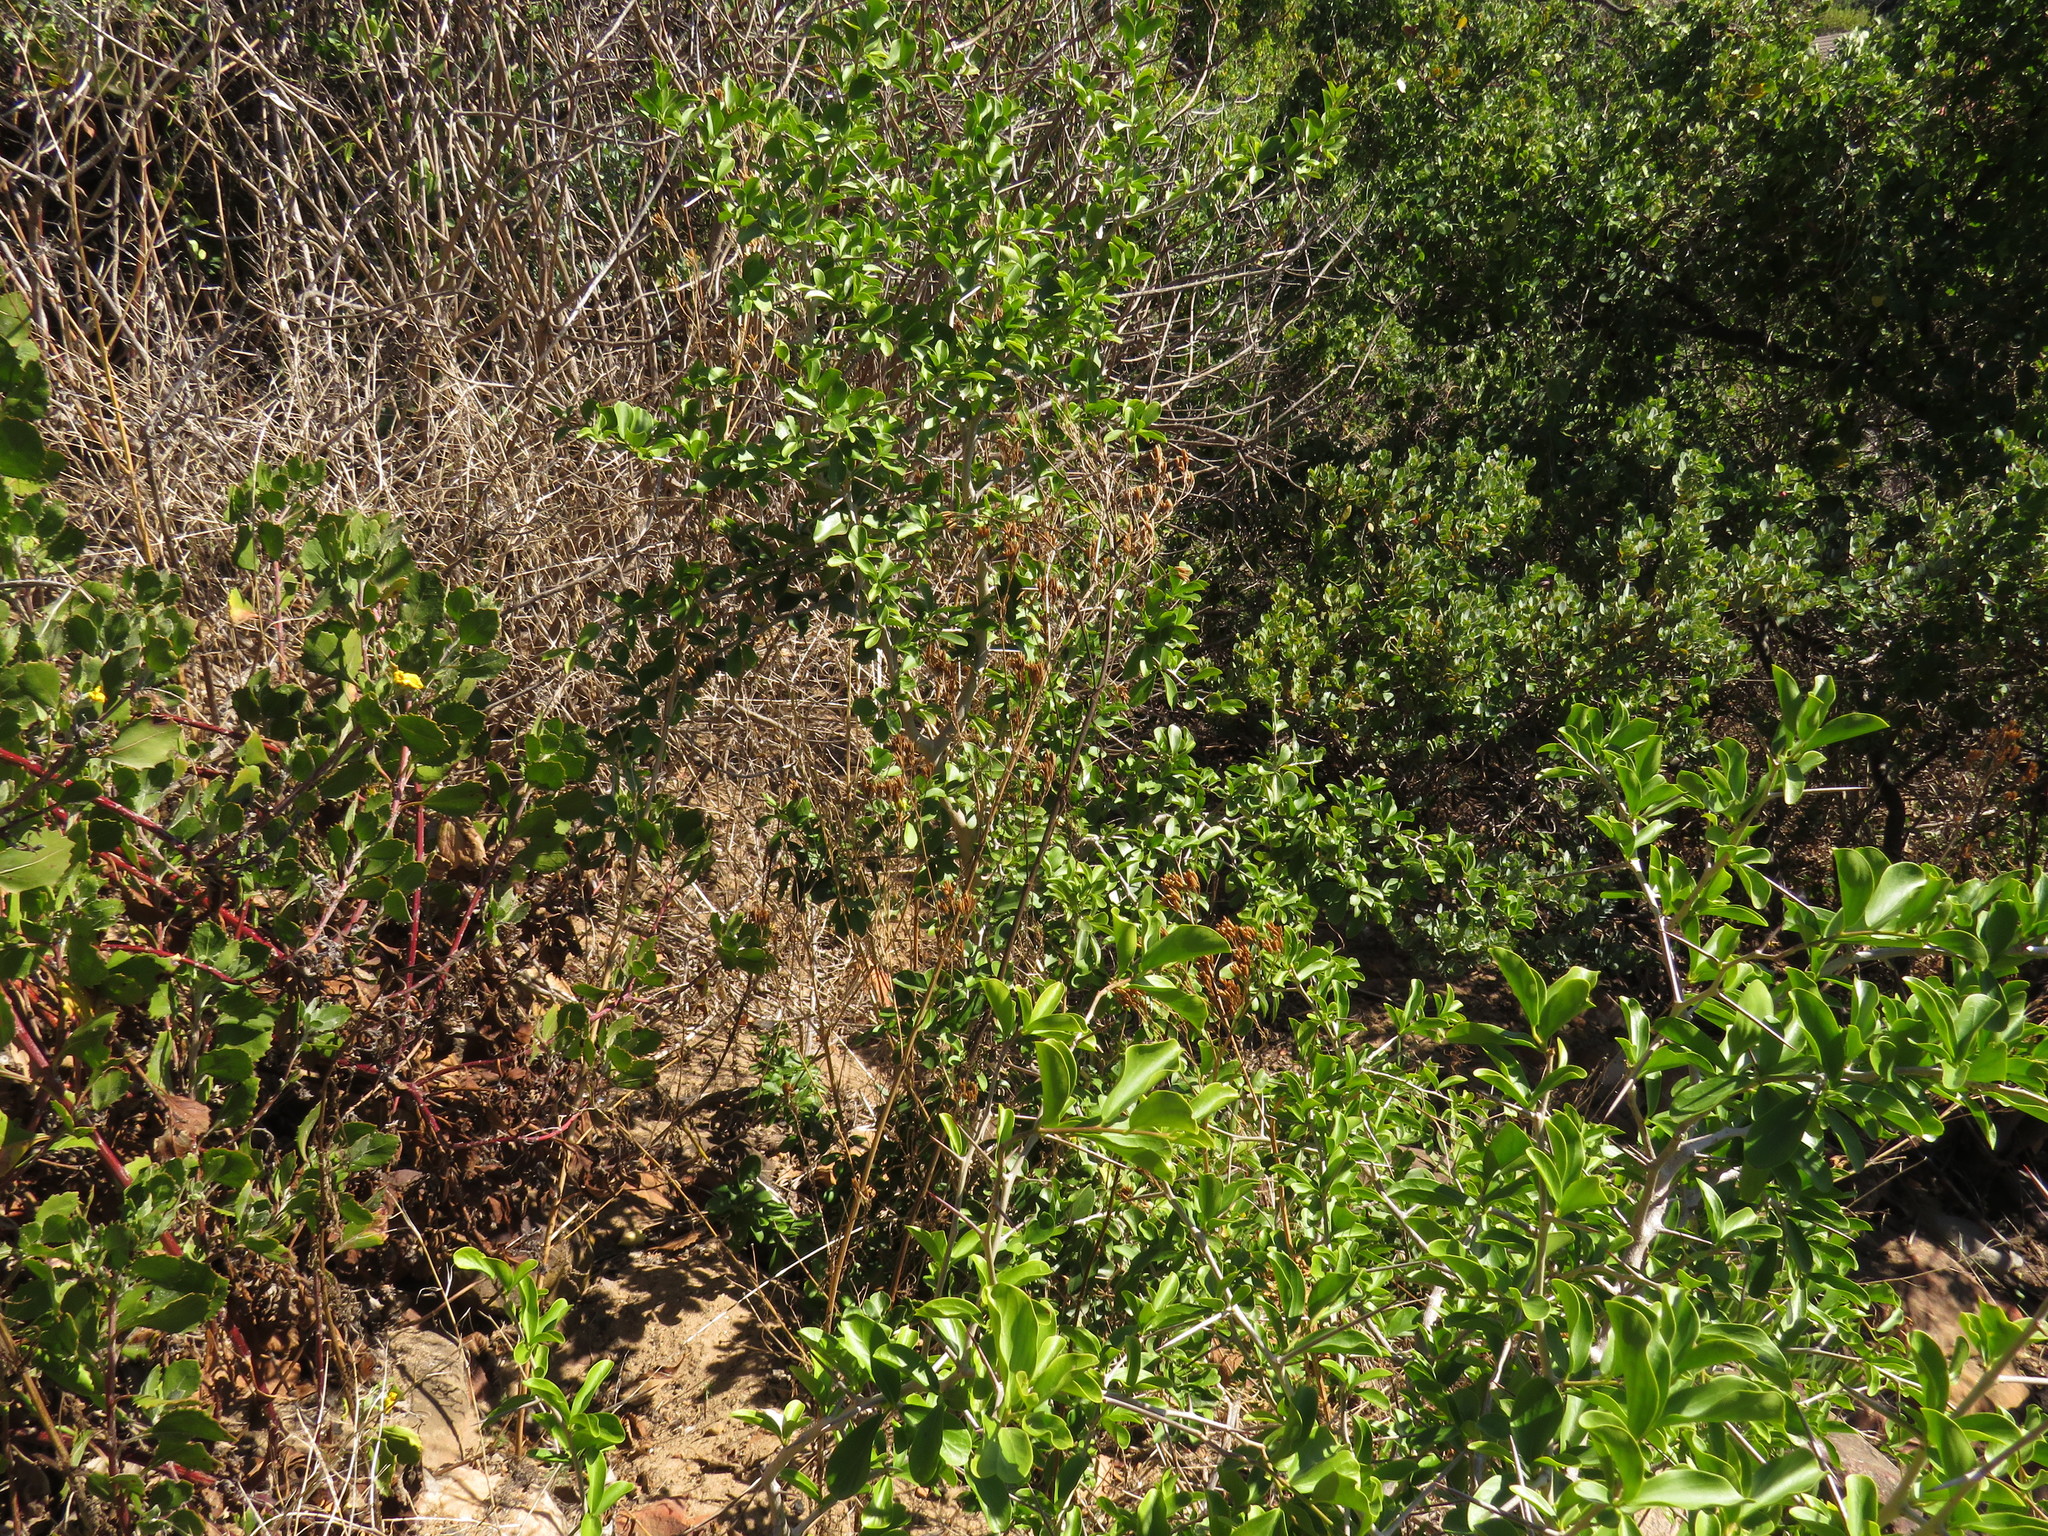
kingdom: Plantae
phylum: Tracheophyta
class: Magnoliopsida
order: Asterales
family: Asteraceae
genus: Tagetes
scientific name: Tagetes minuta
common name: Muster john henry
